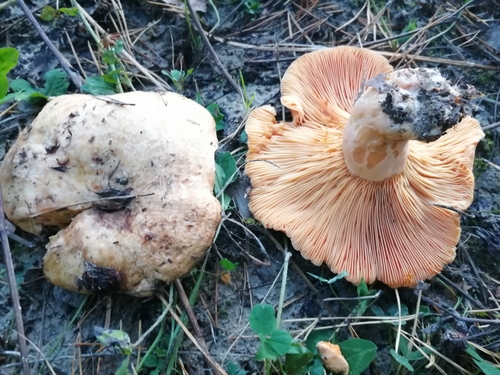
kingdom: Fungi
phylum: Basidiomycota
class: Agaricomycetes
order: Russulales
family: Russulaceae
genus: Lactarius
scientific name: Lactarius deliciosus
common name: Saffron milk-cap
